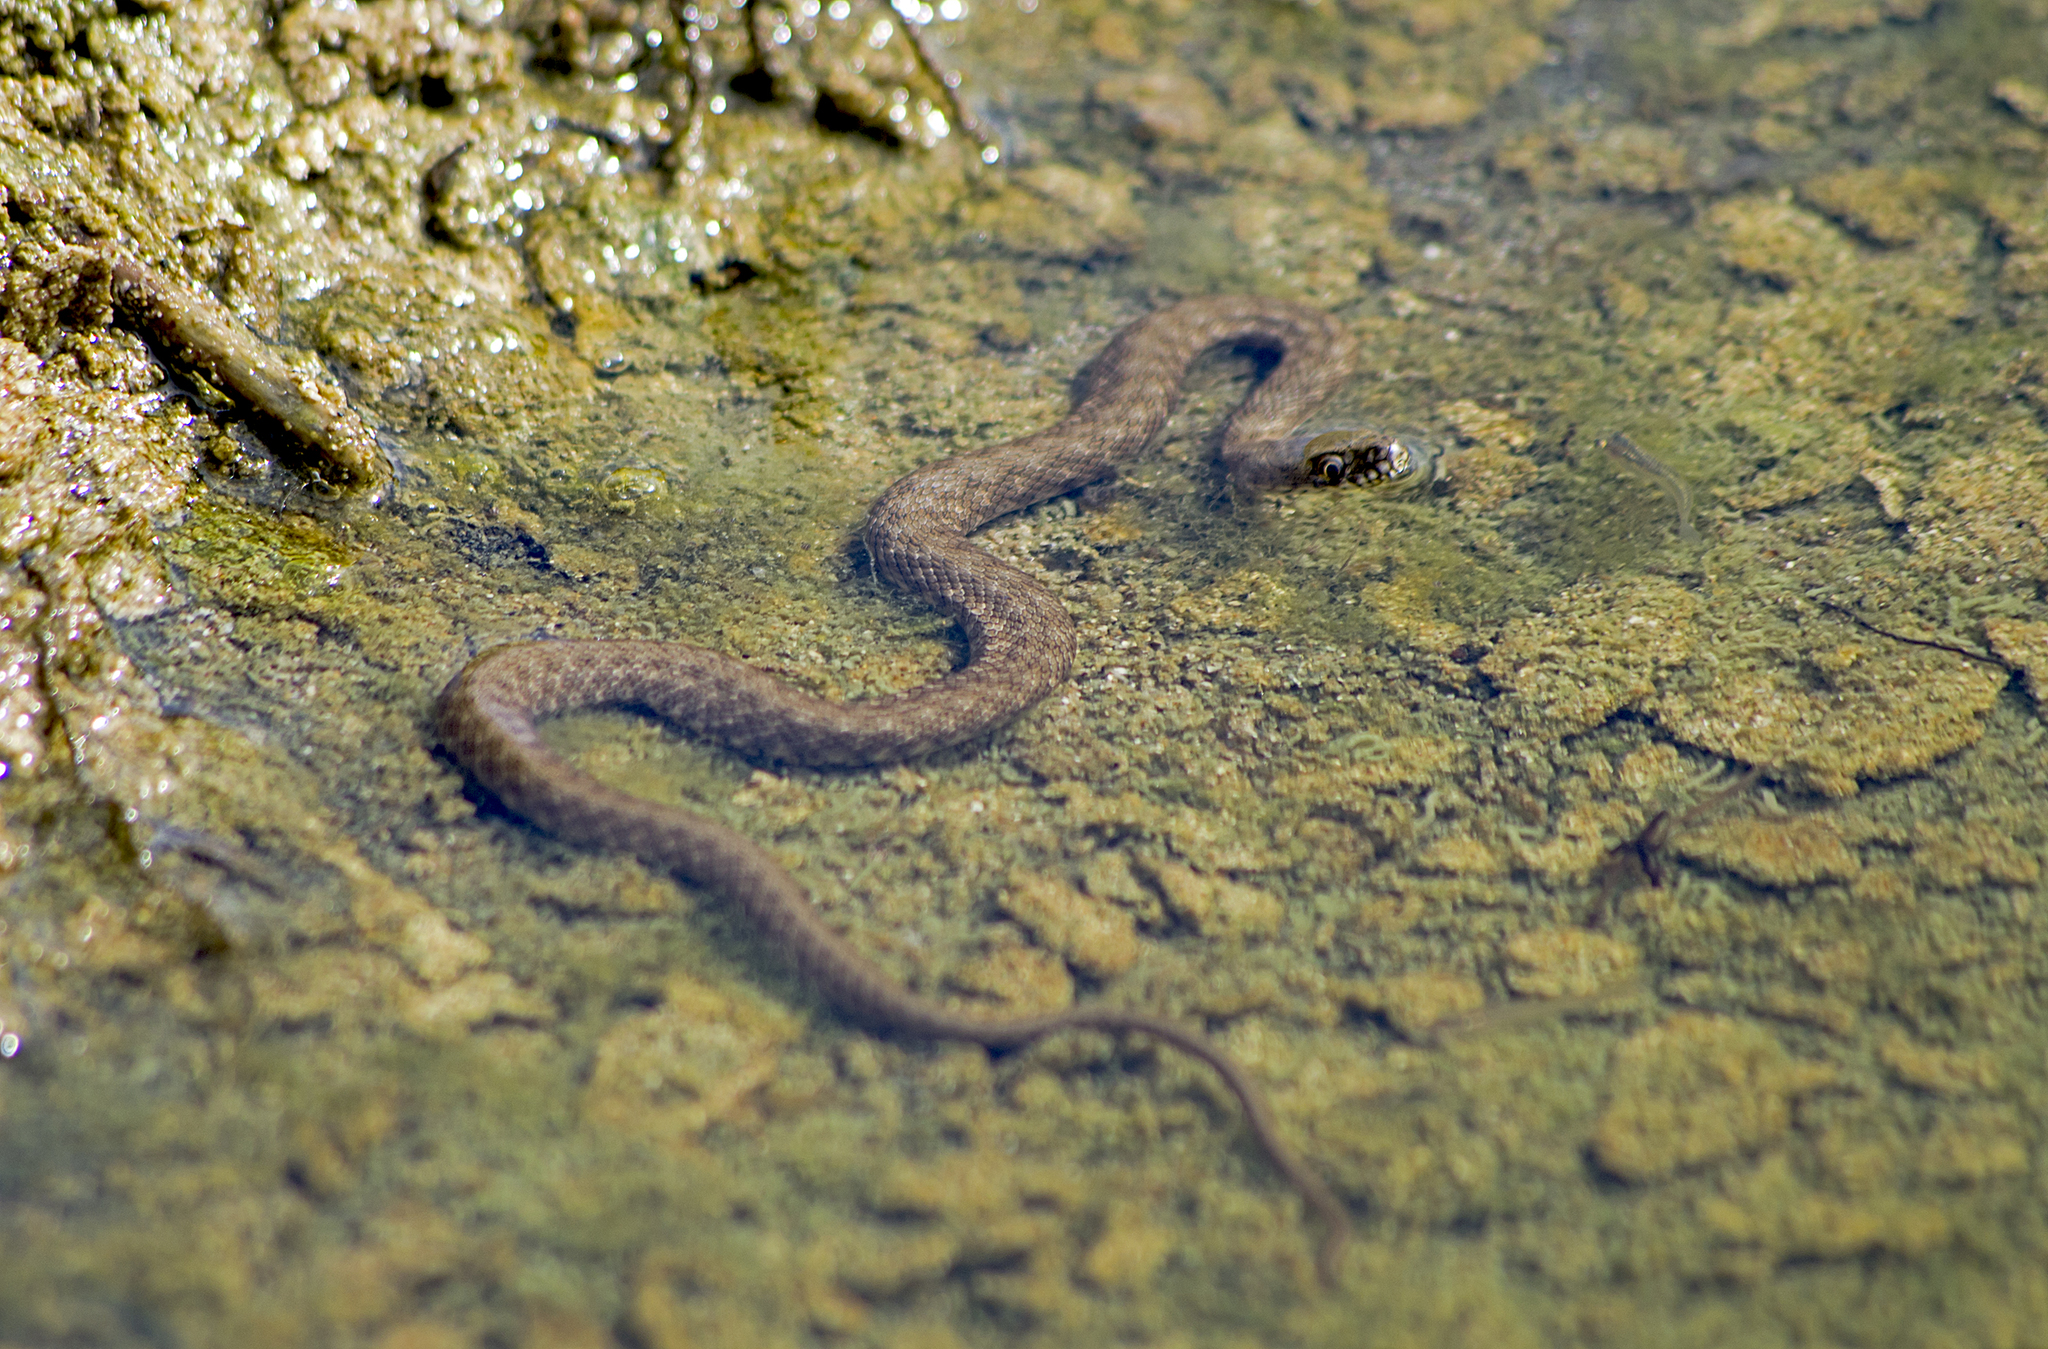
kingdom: Animalia
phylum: Chordata
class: Squamata
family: Colubridae
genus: Natrix
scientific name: Natrix tessellata
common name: Dice snake
